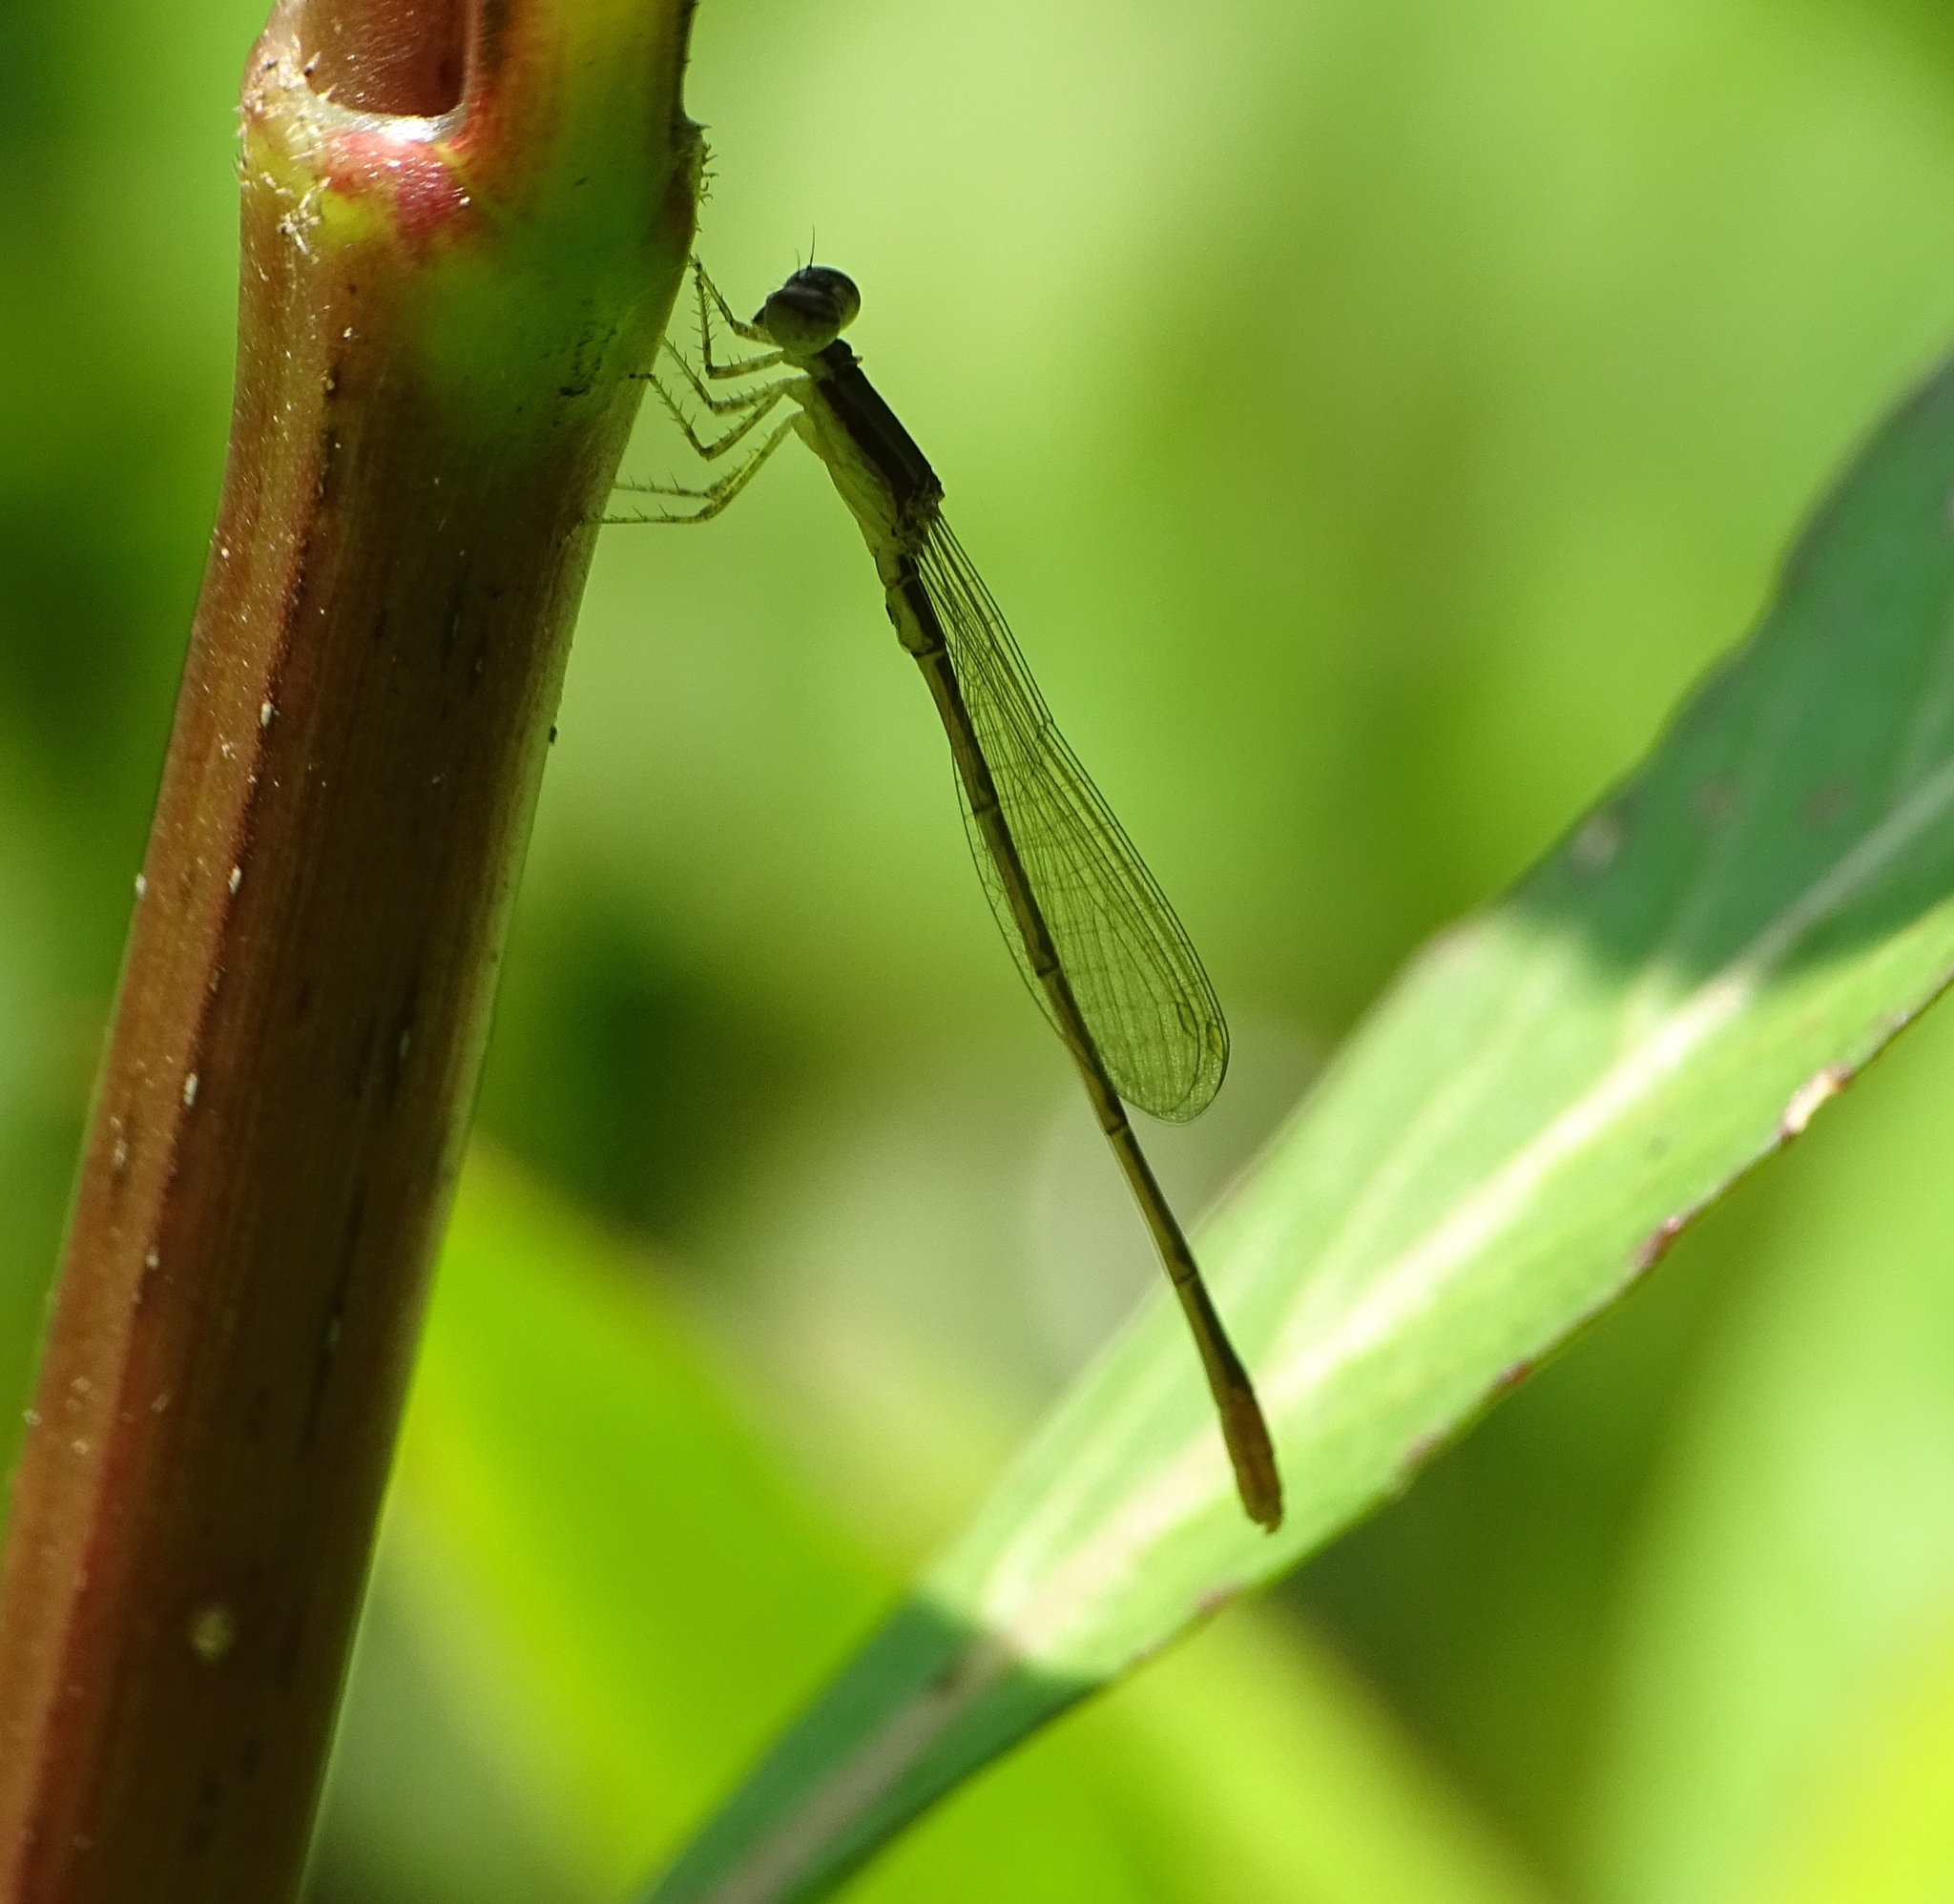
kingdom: Animalia
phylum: Arthropoda
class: Insecta
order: Odonata
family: Coenagrionidae
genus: Agriocnemis
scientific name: Agriocnemis pygmaea
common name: Pygmy wisp
